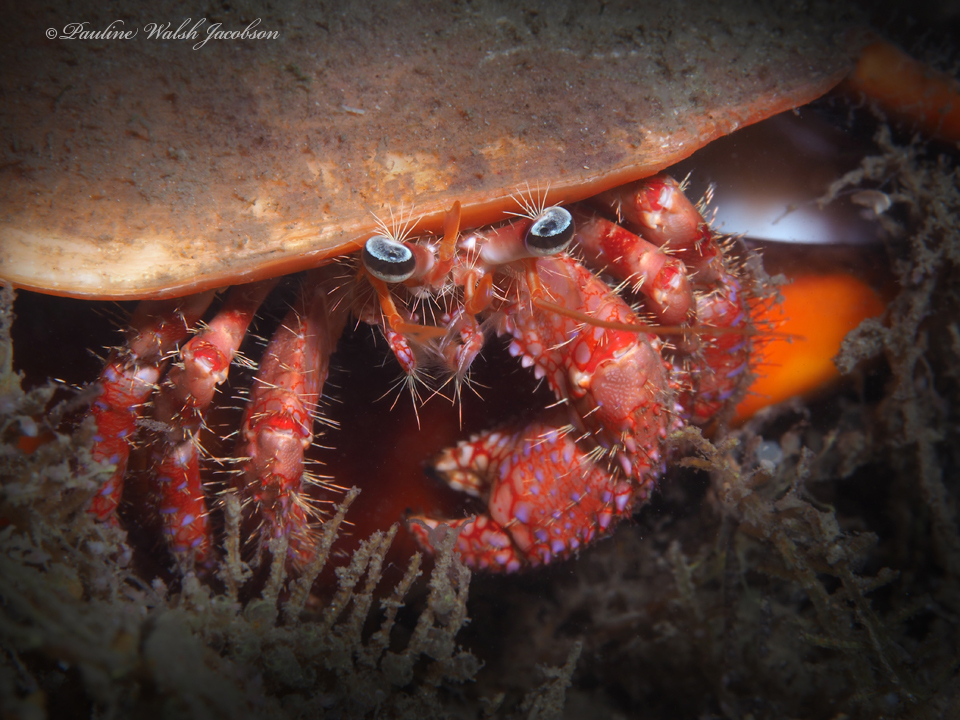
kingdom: Animalia
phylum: Arthropoda
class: Malacostraca
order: Decapoda
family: Diogenidae
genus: Dardanus
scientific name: Dardanus fucosus
